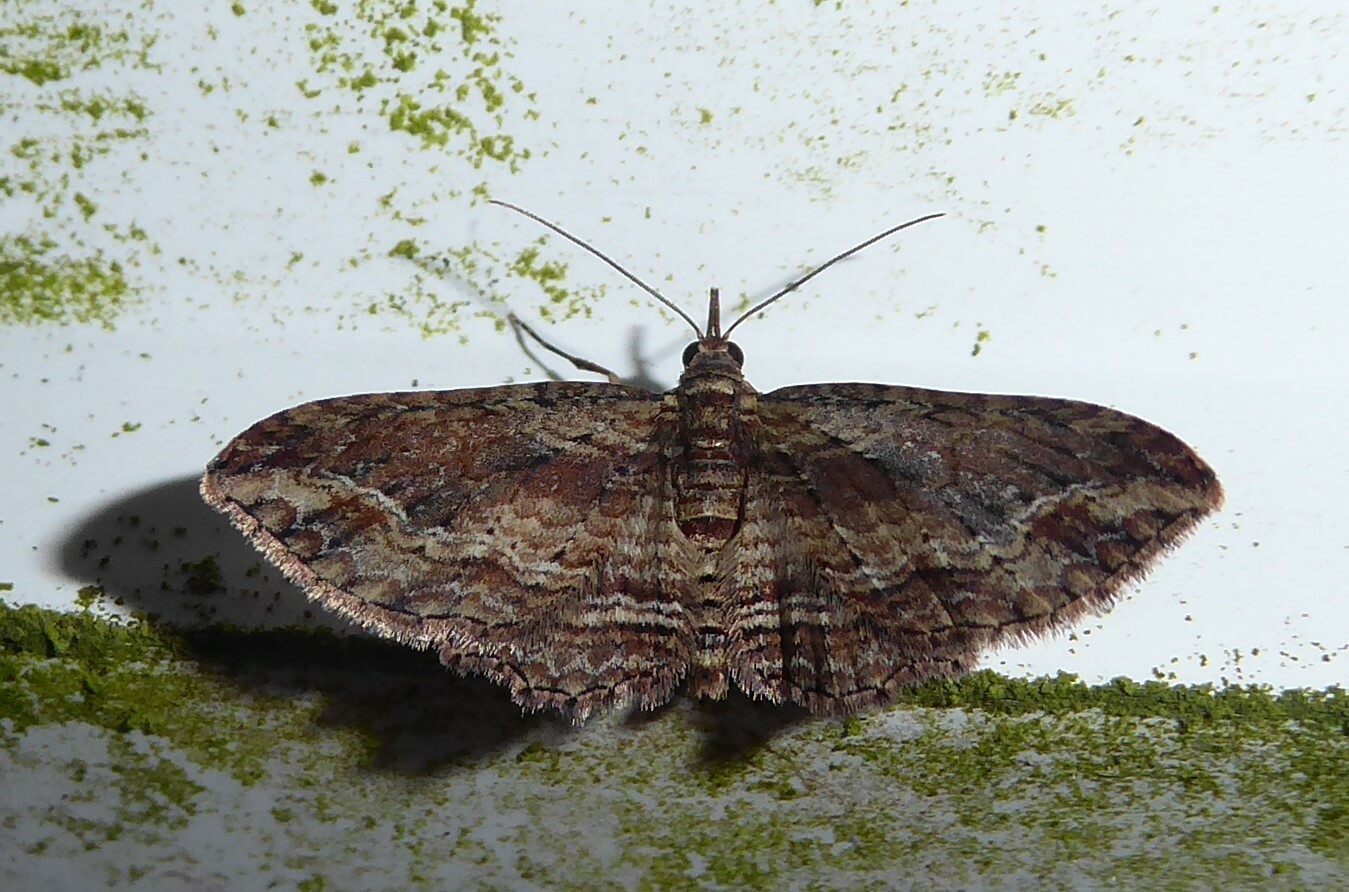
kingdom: Animalia
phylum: Arthropoda
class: Insecta
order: Lepidoptera
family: Geometridae
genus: Chloroclystis
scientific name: Chloroclystis filata
